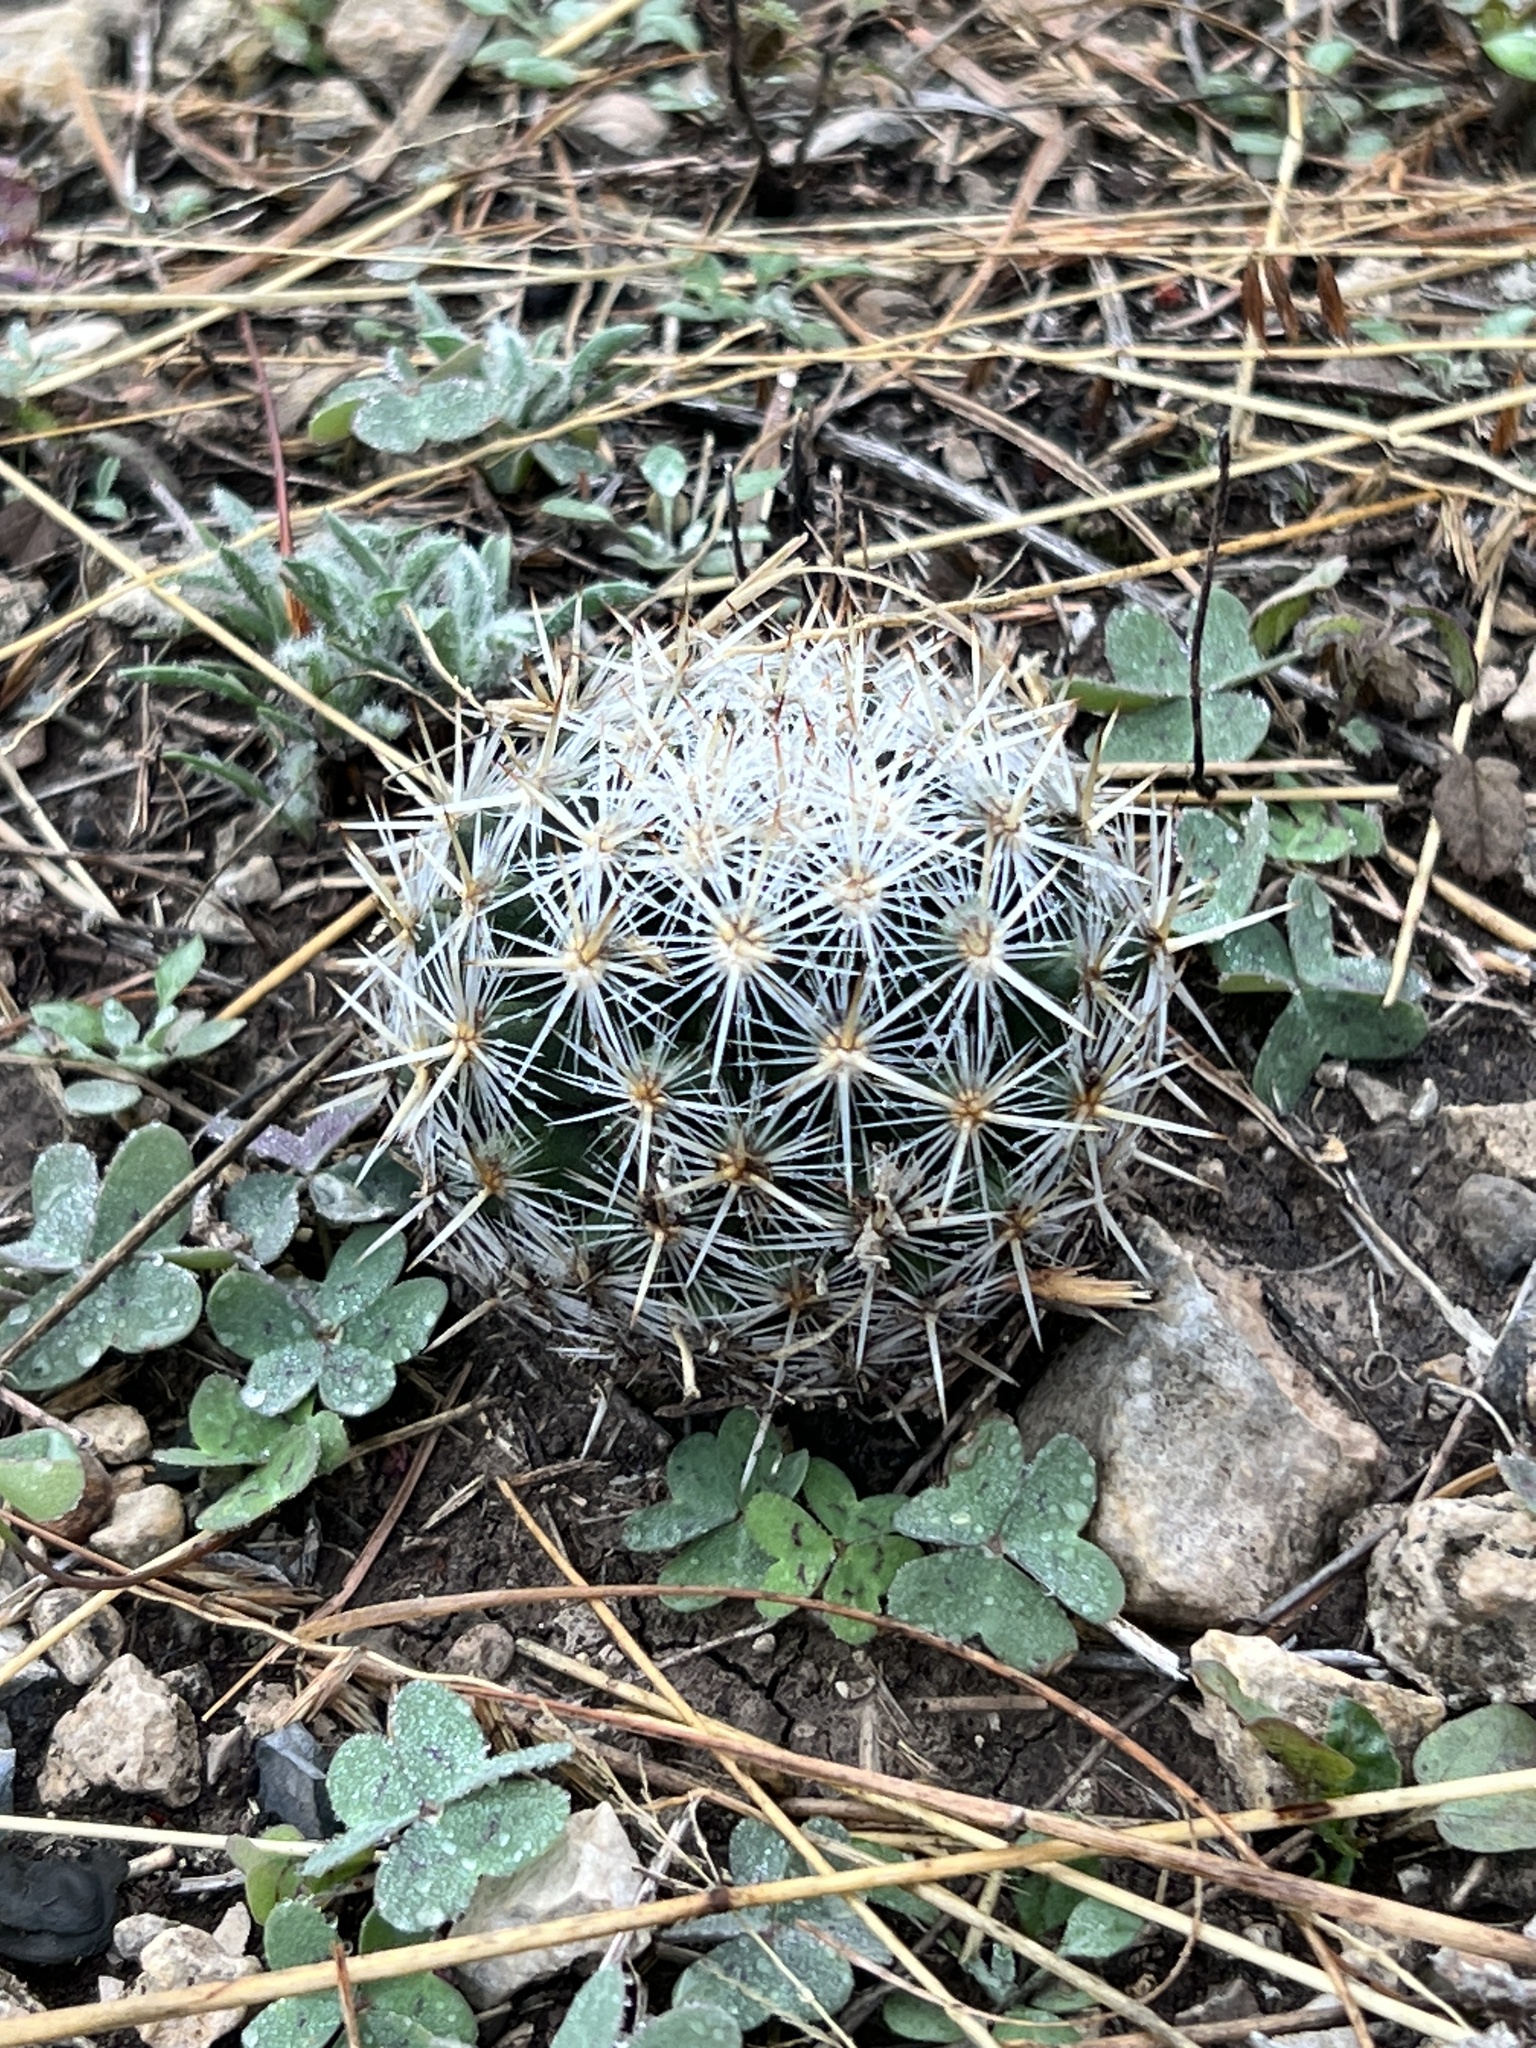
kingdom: Plantae
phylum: Tracheophyta
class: Magnoliopsida
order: Caryophyllales
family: Cactaceae
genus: Pelecyphora
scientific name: Pelecyphora vivipara
